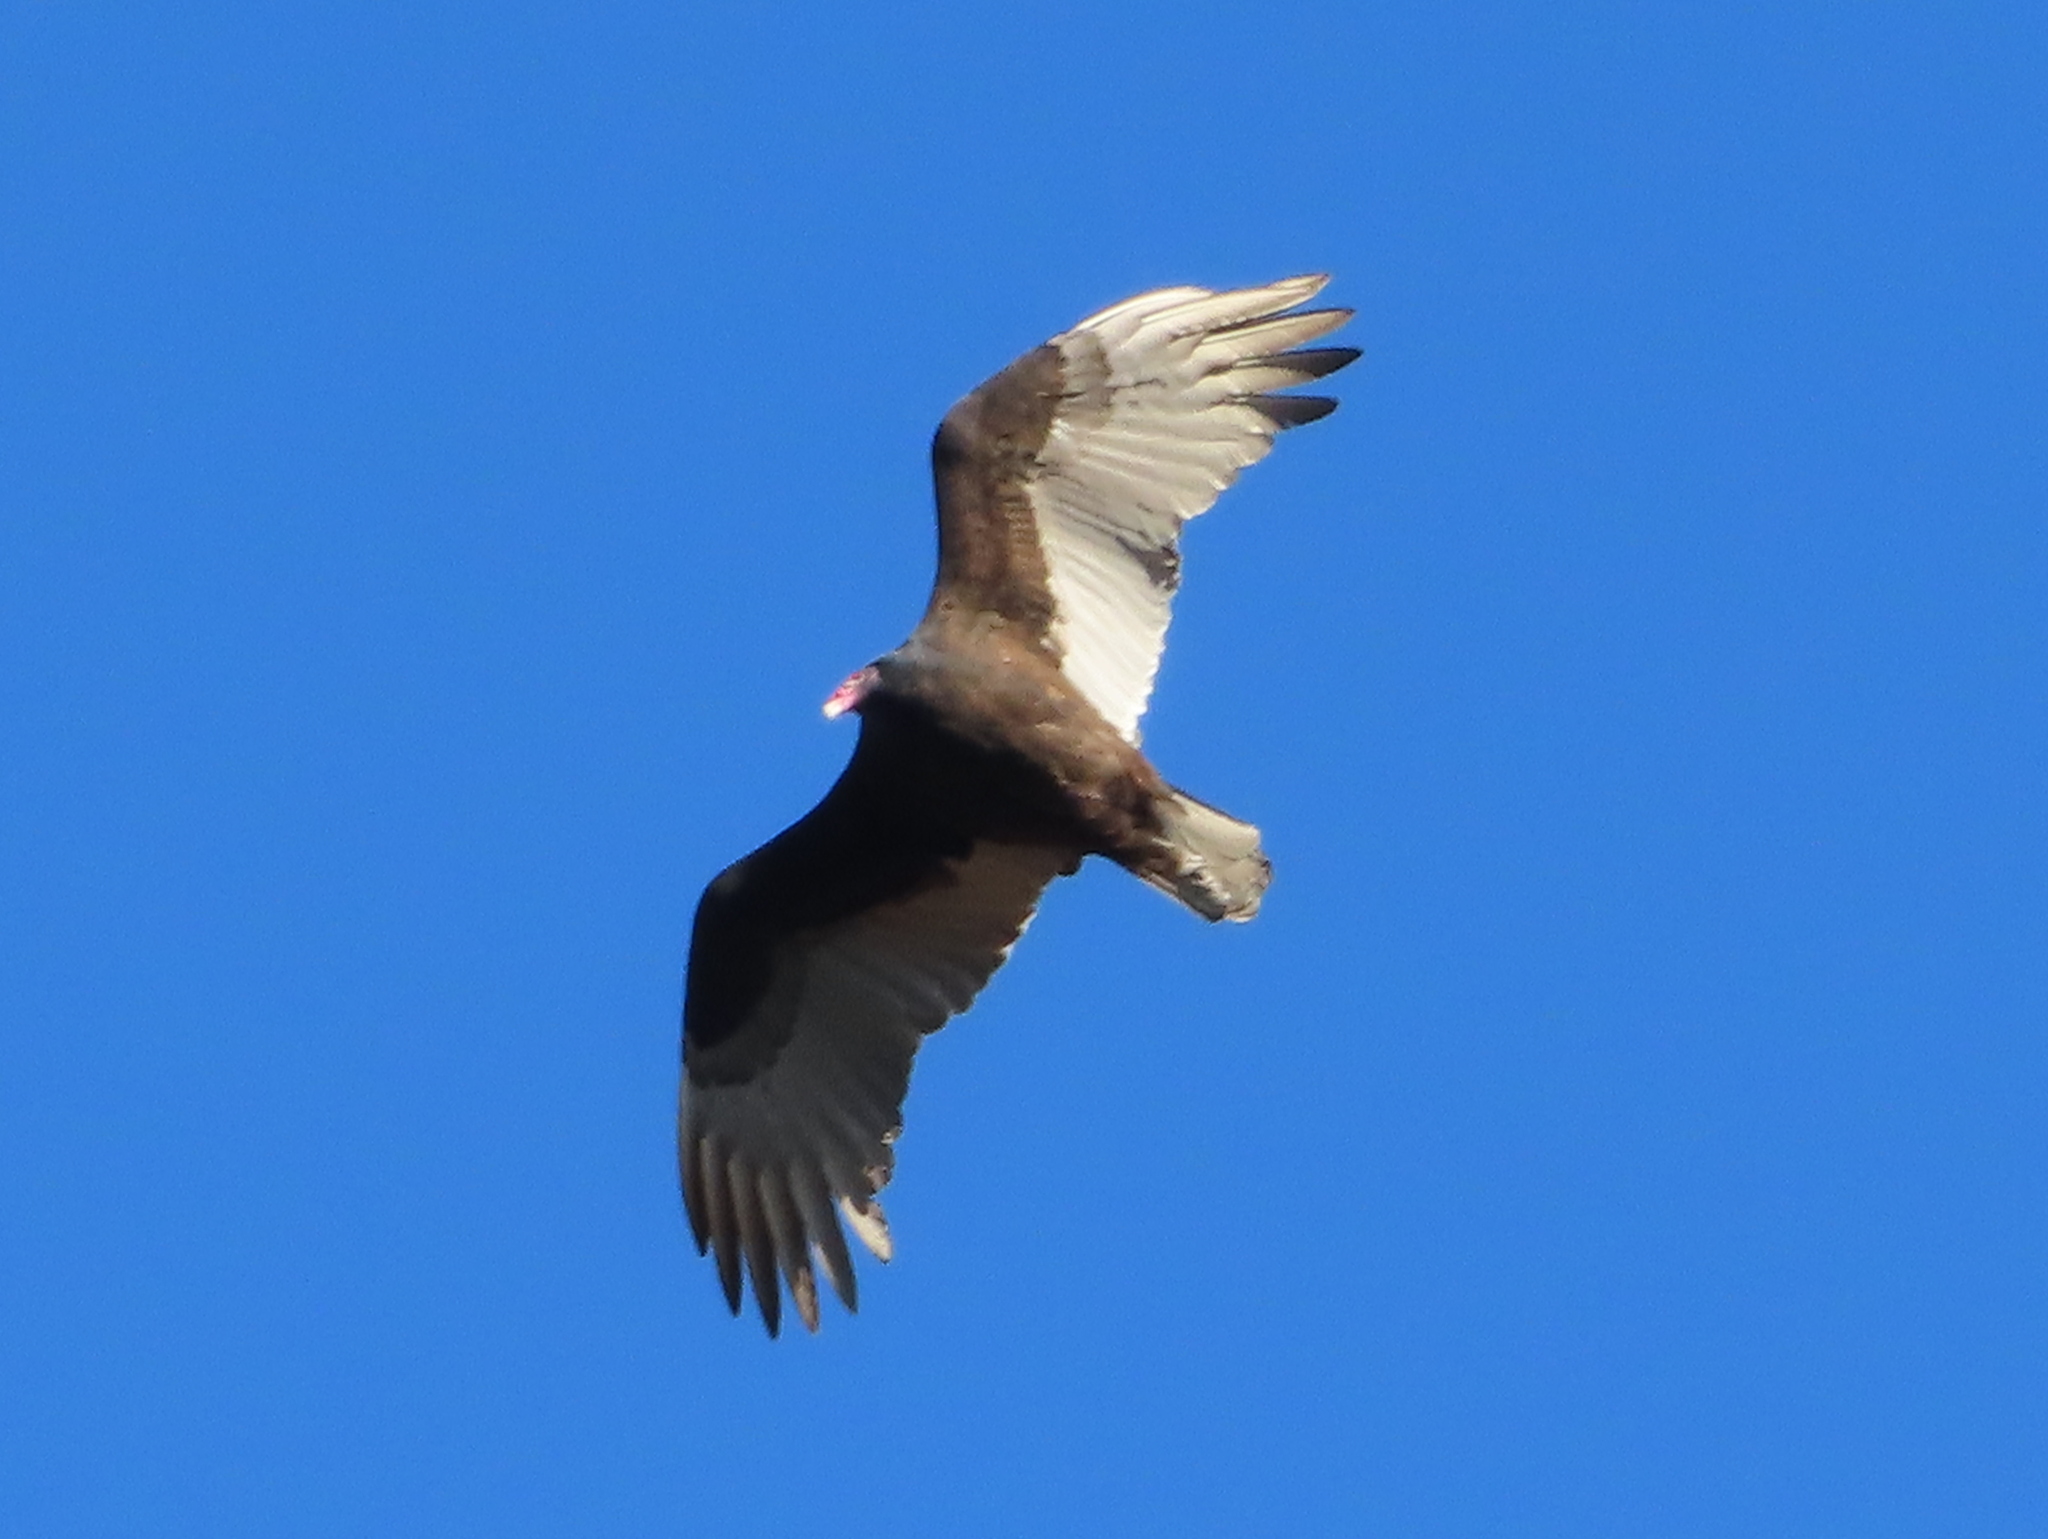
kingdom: Animalia
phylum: Chordata
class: Aves
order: Accipitriformes
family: Cathartidae
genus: Cathartes
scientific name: Cathartes aura
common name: Turkey vulture
